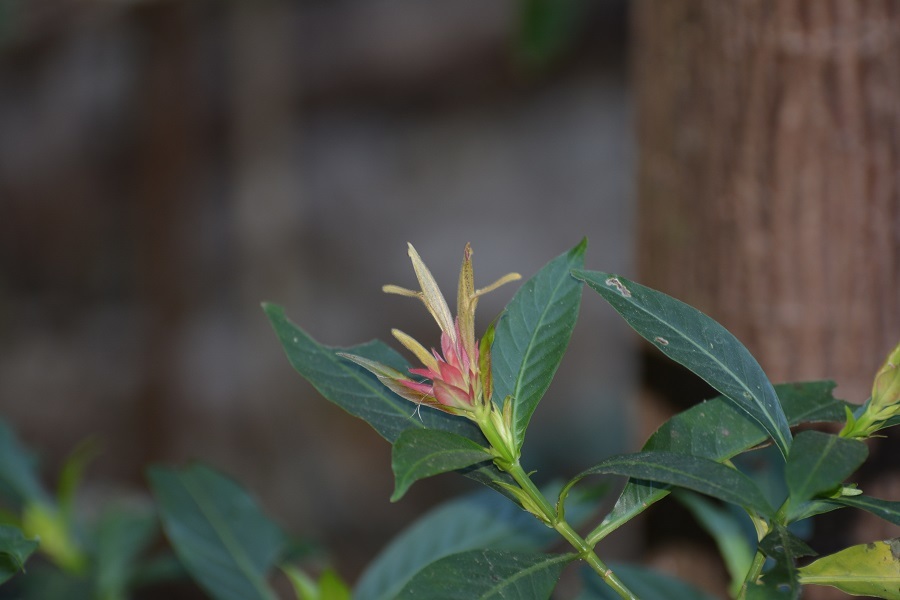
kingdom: Plantae
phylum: Tracheophyta
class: Magnoliopsida
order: Lamiales
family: Acanthaceae
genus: Justicia
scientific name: Justicia mirandae
